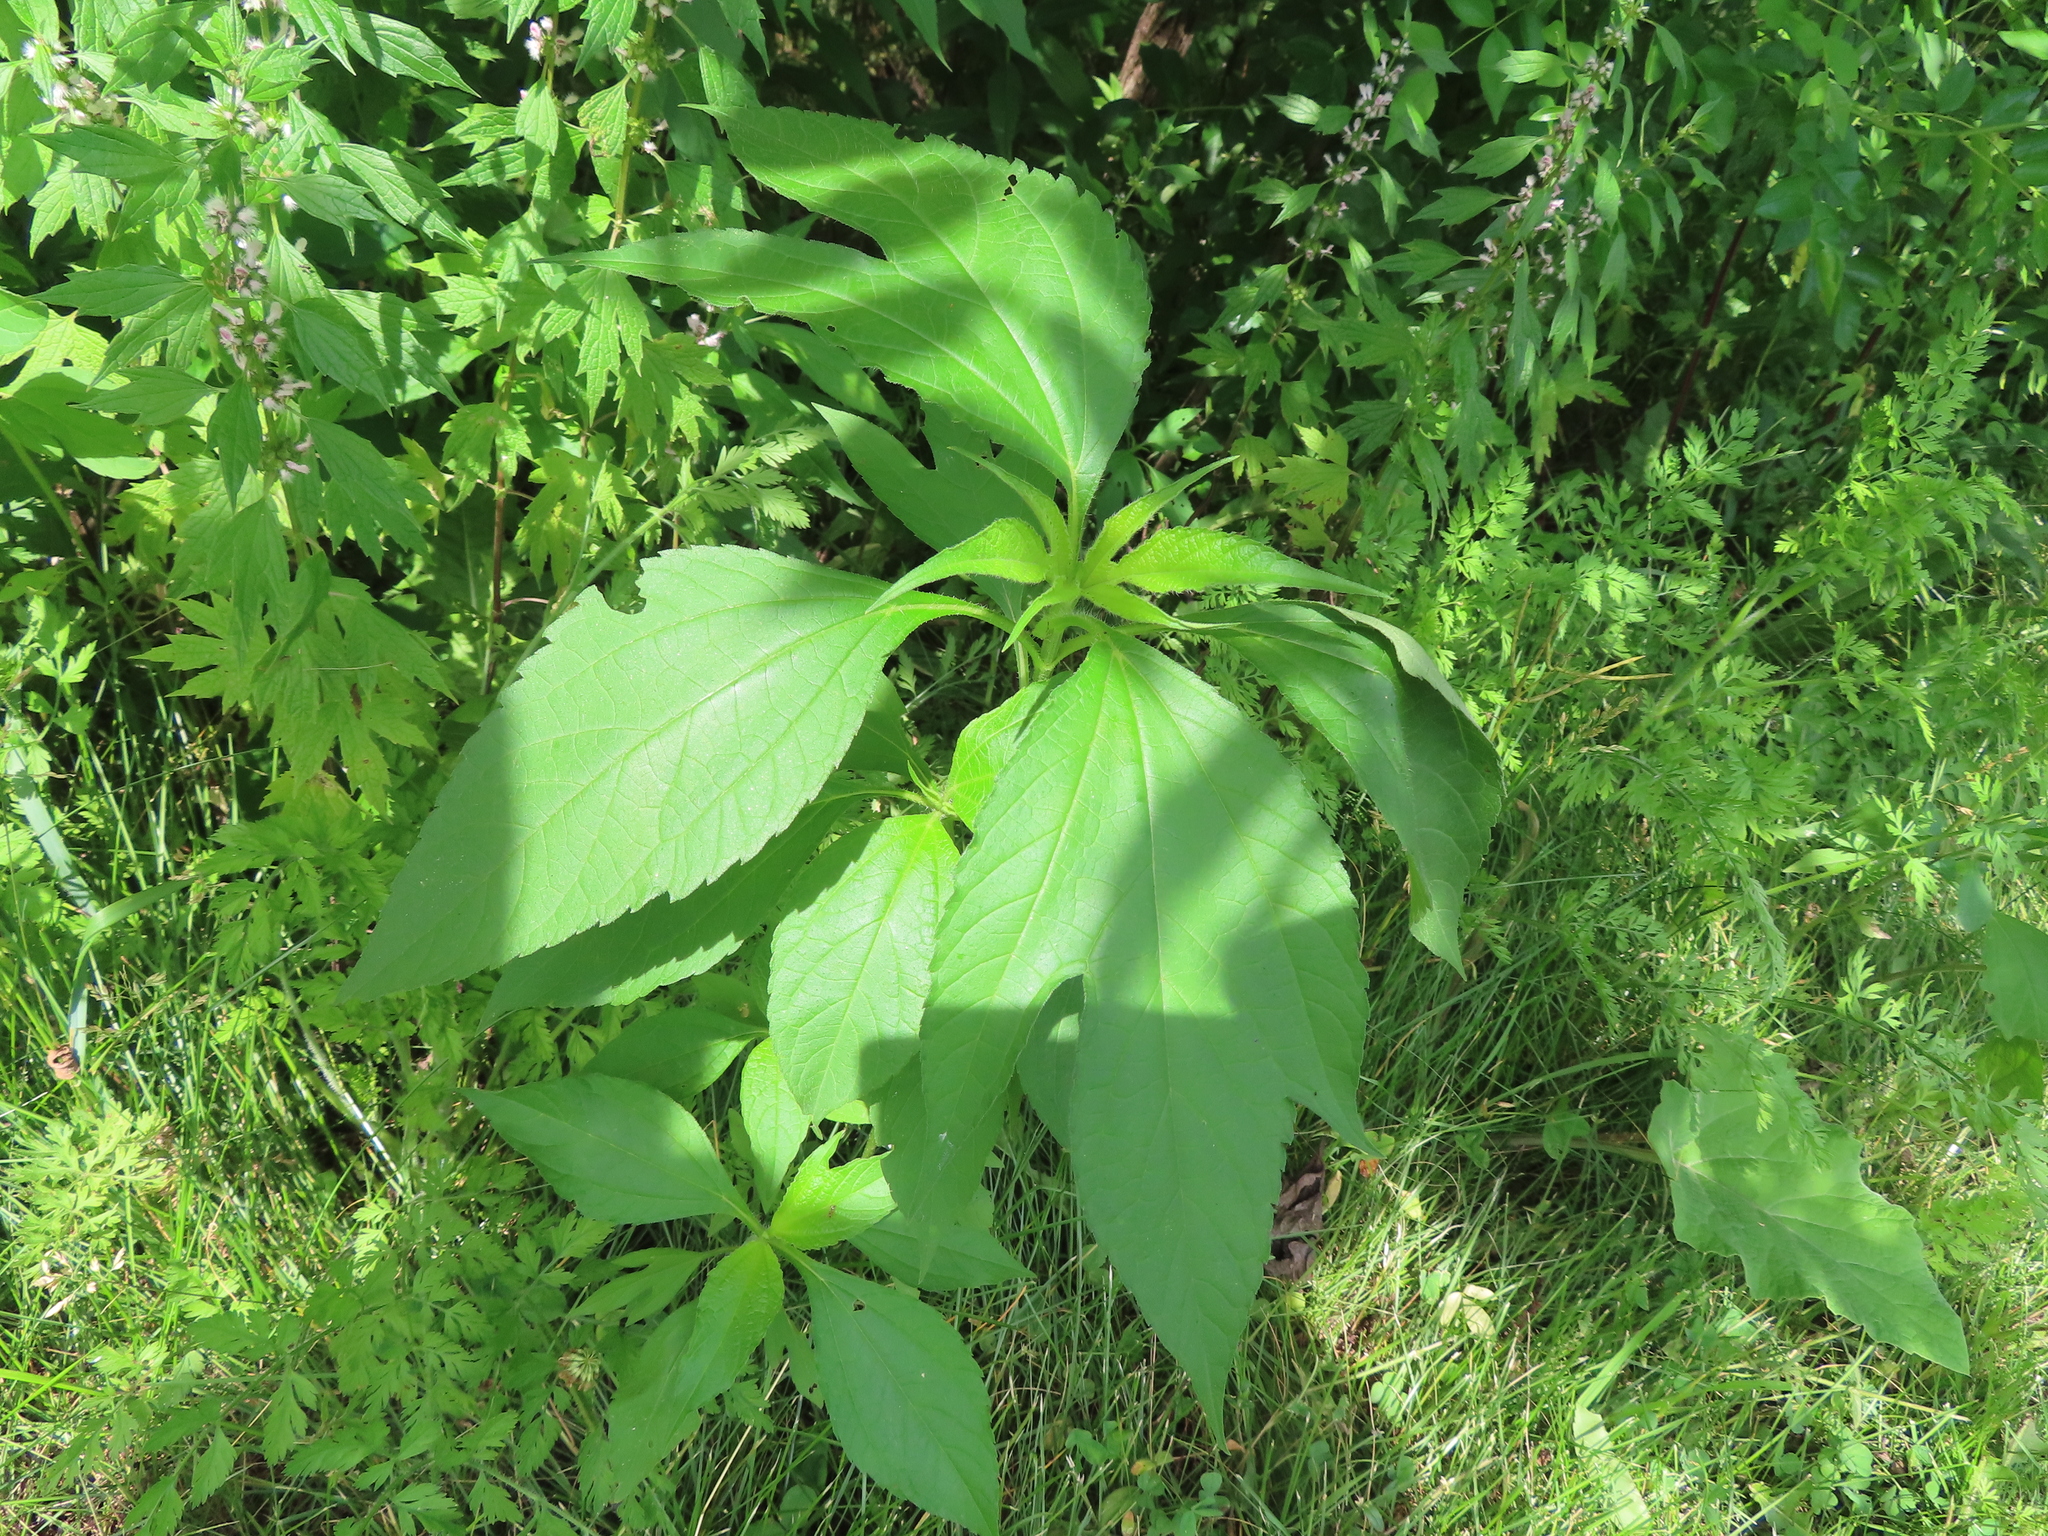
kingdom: Plantae
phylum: Tracheophyta
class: Magnoliopsida
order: Asterales
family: Asteraceae
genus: Ambrosia
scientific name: Ambrosia trifida
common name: Giant ragweed
